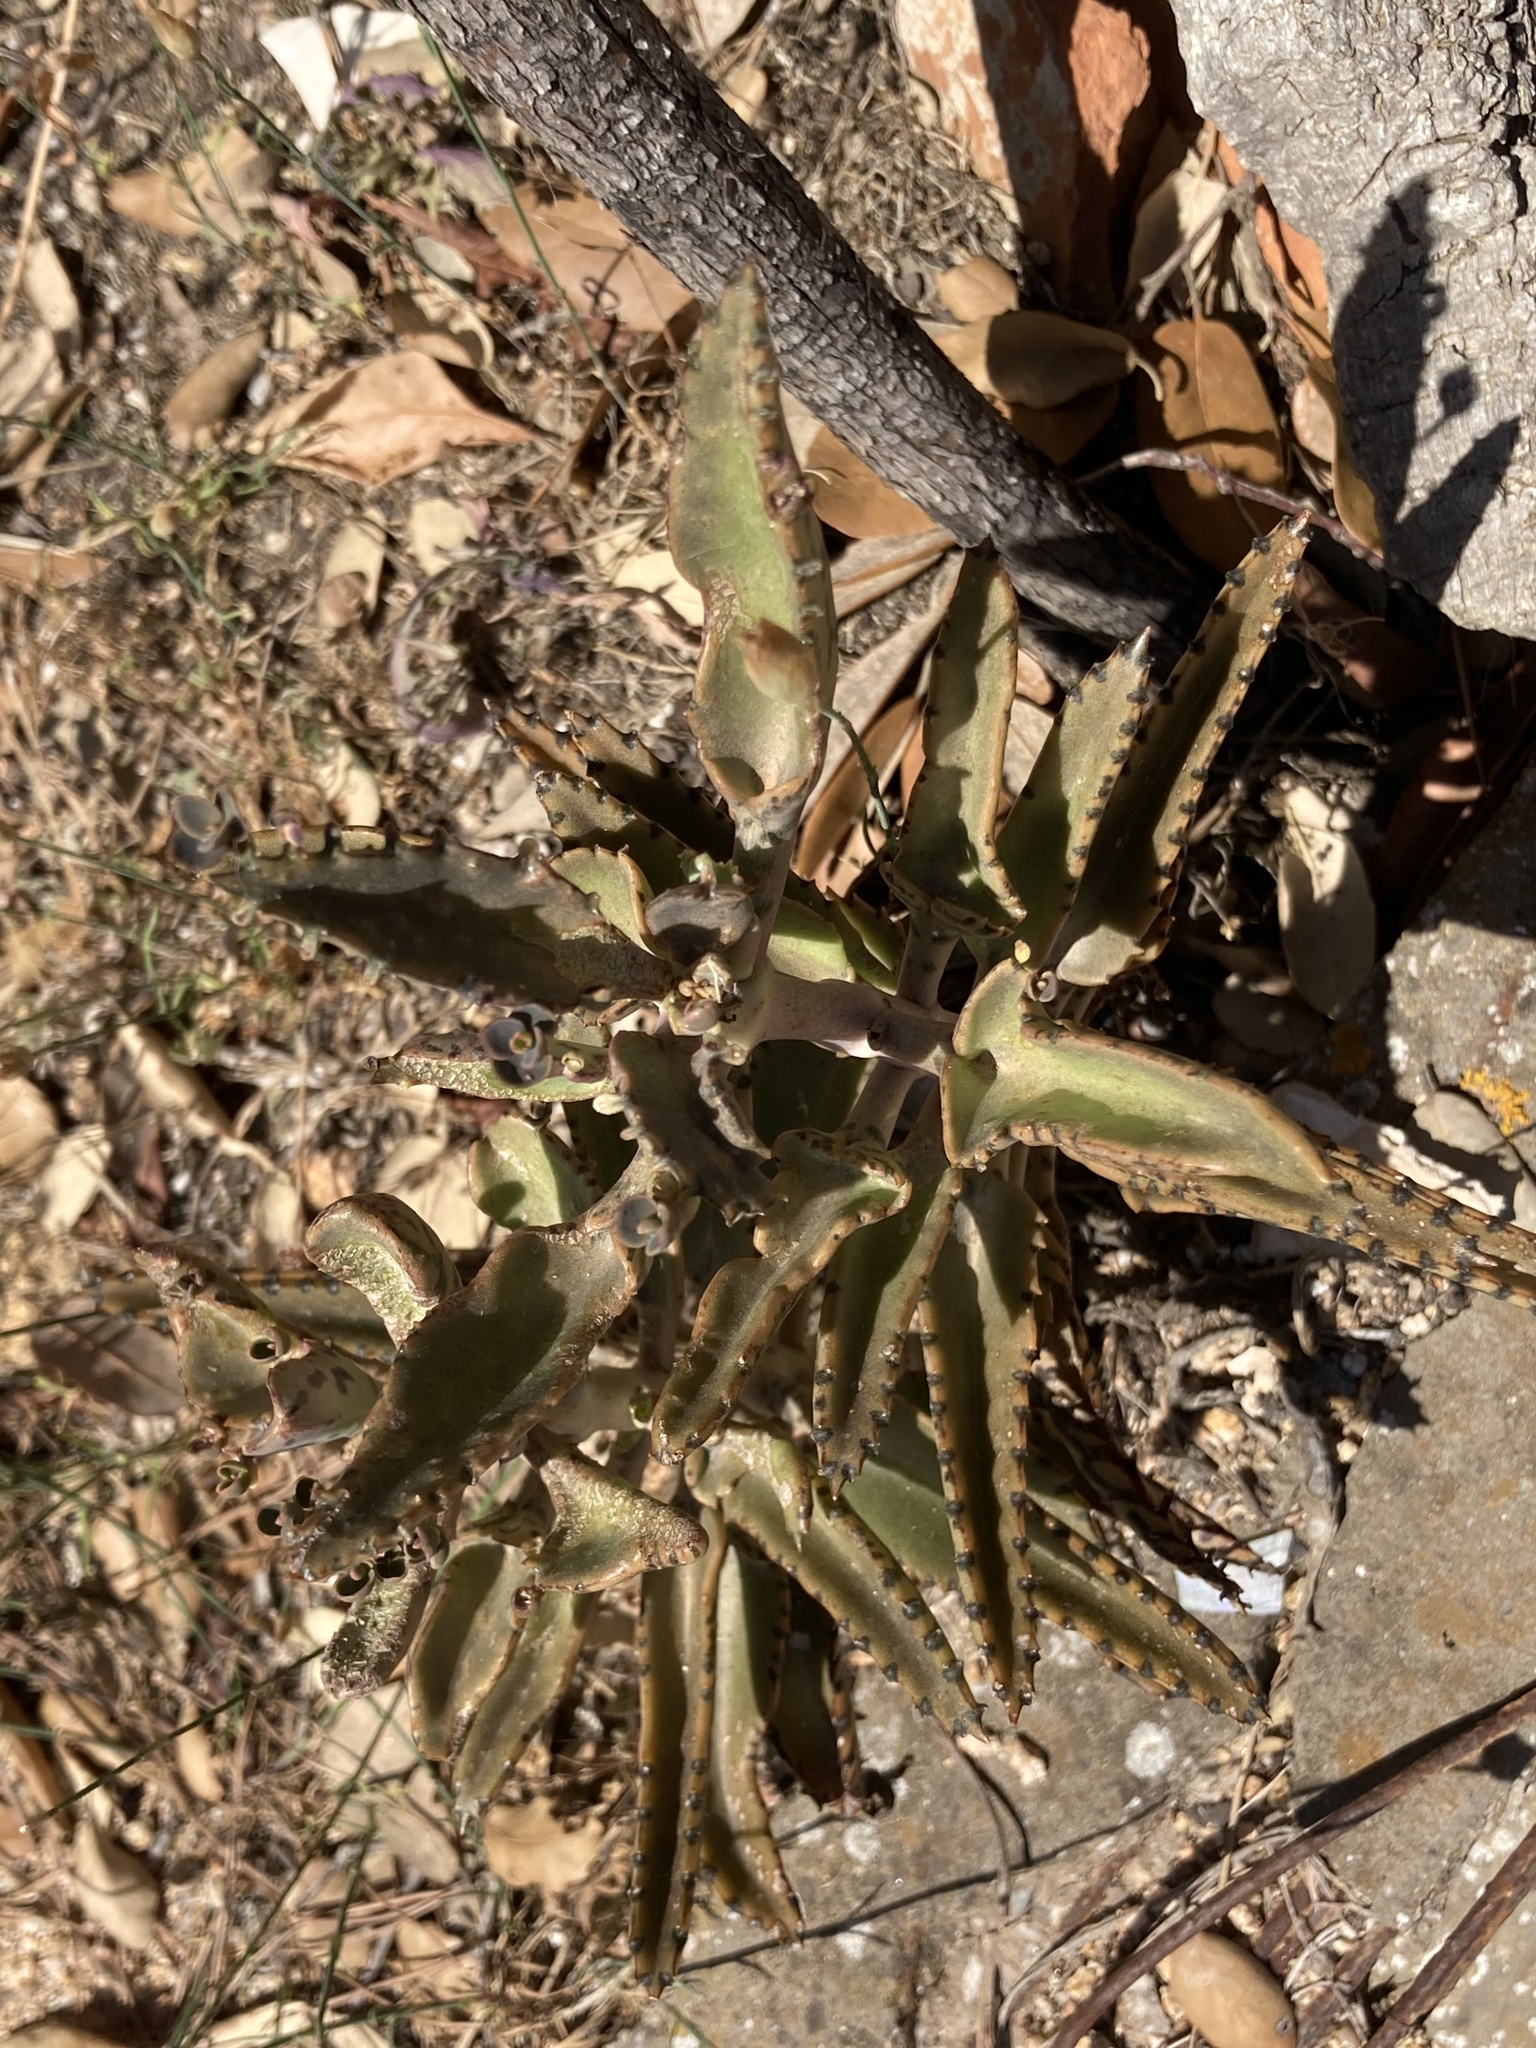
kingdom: Plantae
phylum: Tracheophyta
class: Magnoliopsida
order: Saxifragales
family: Crassulaceae
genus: Kalanchoe
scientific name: Kalanchoe houghtonii
